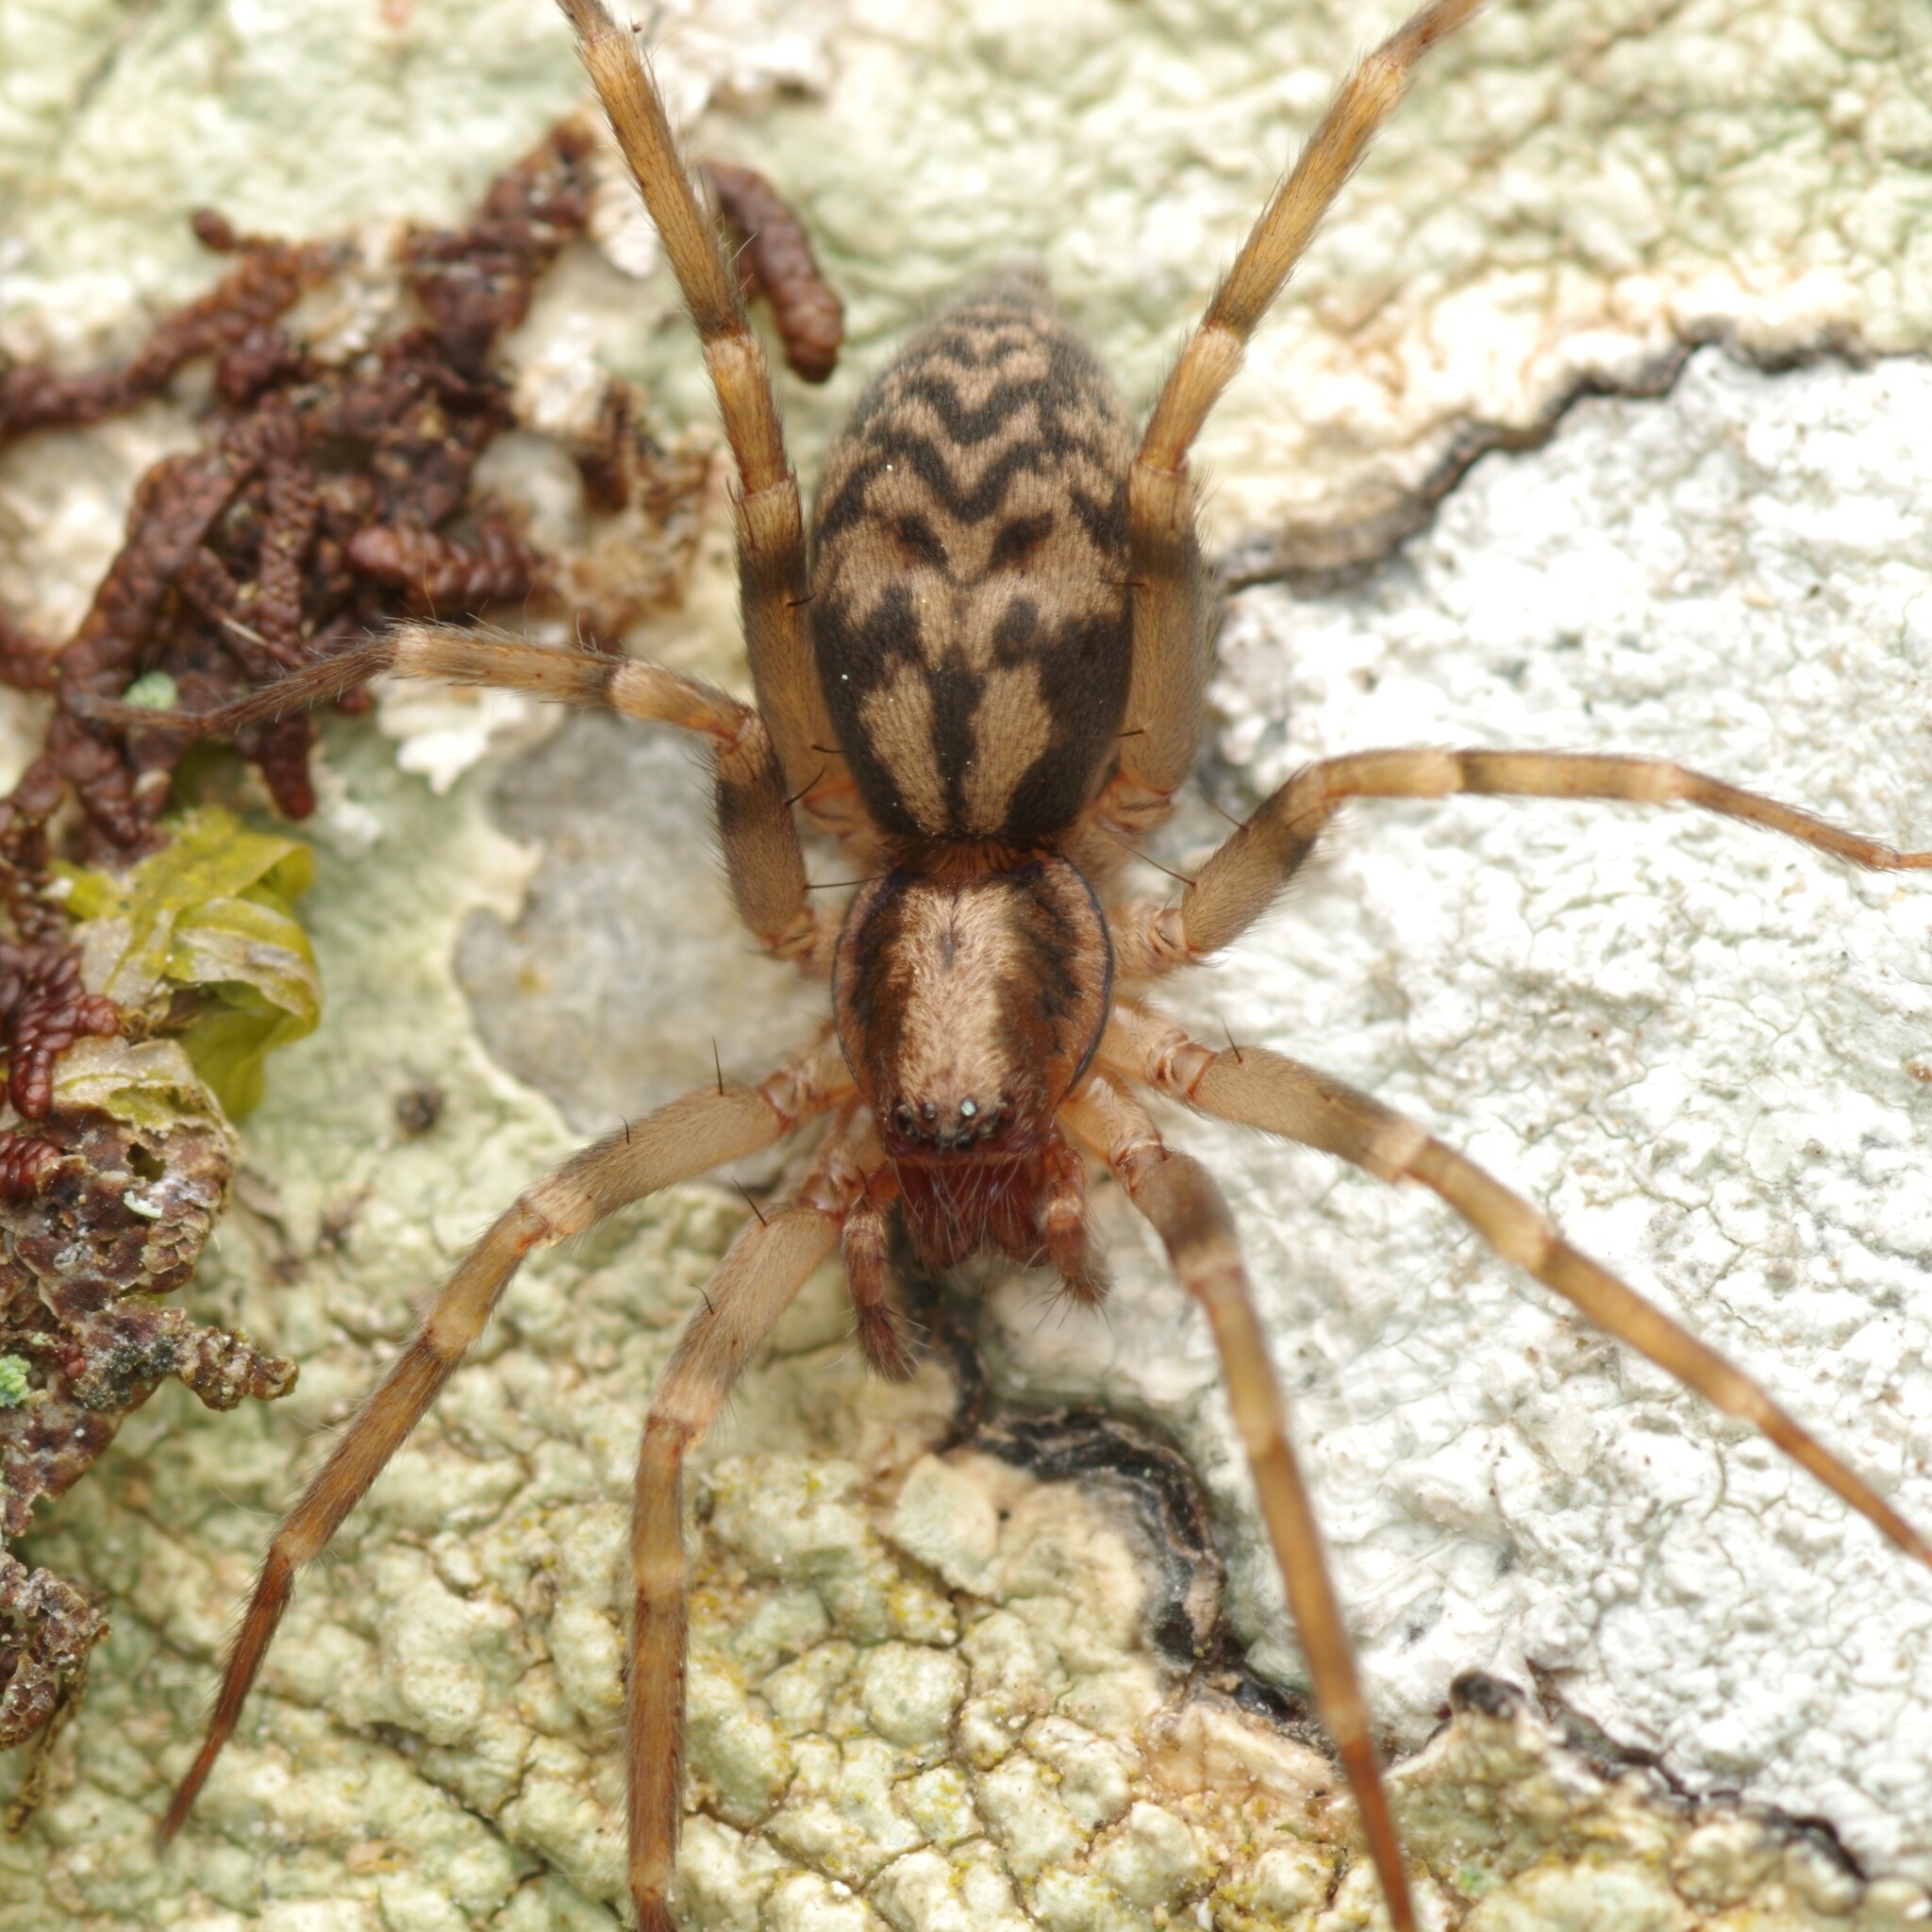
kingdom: Animalia
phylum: Arthropoda
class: Arachnida
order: Araneae
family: Liocranidae
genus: Liocranum
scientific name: Liocranum rupicola
